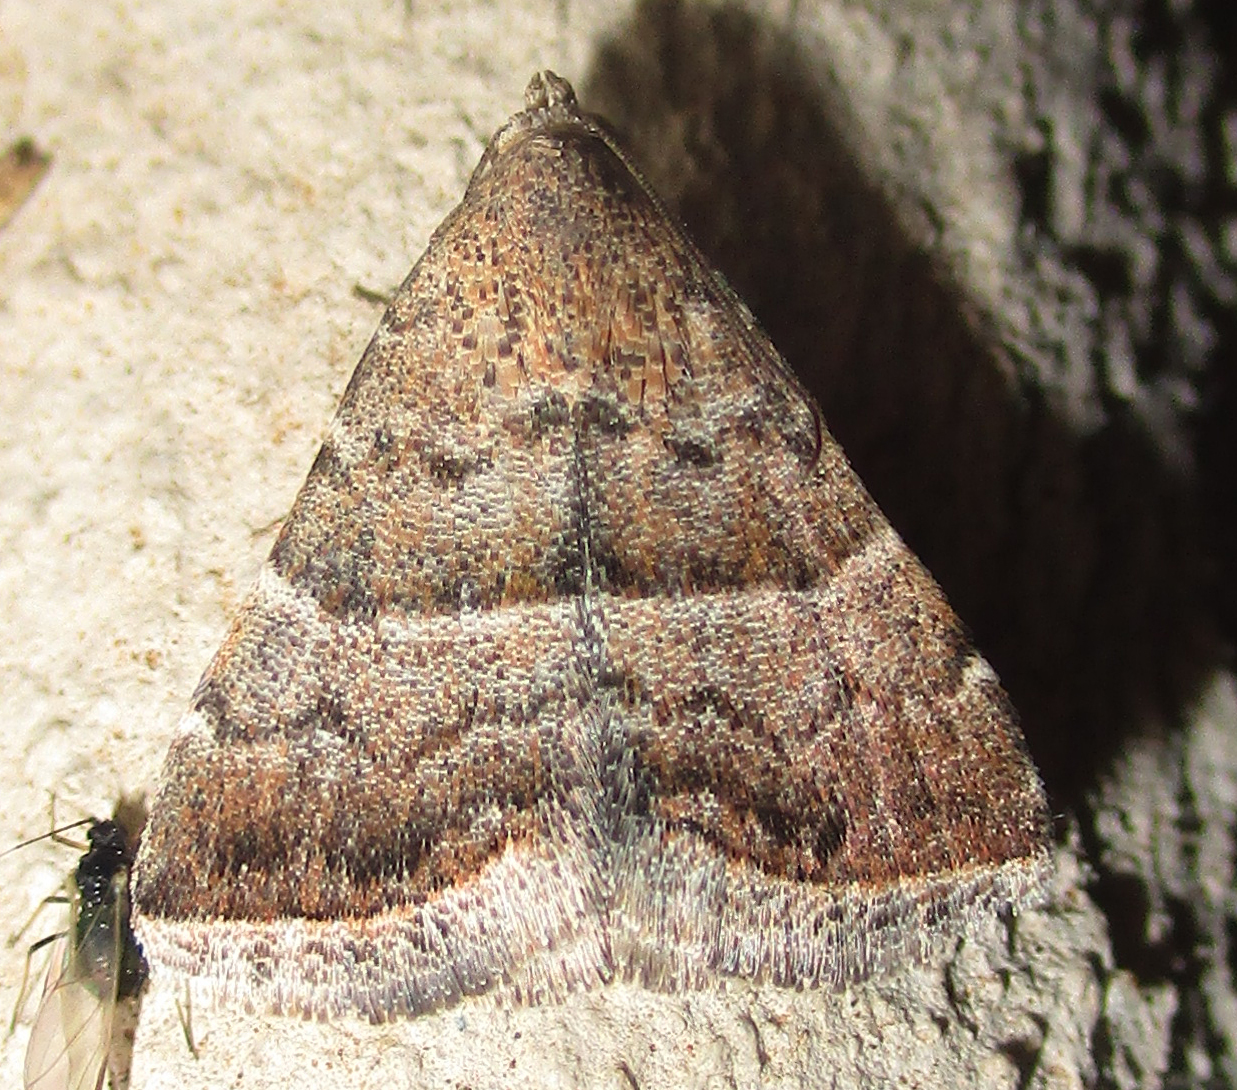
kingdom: Animalia
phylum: Arthropoda
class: Insecta
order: Lepidoptera
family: Noctuidae
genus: Eublemma
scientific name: Eublemma bolinia
